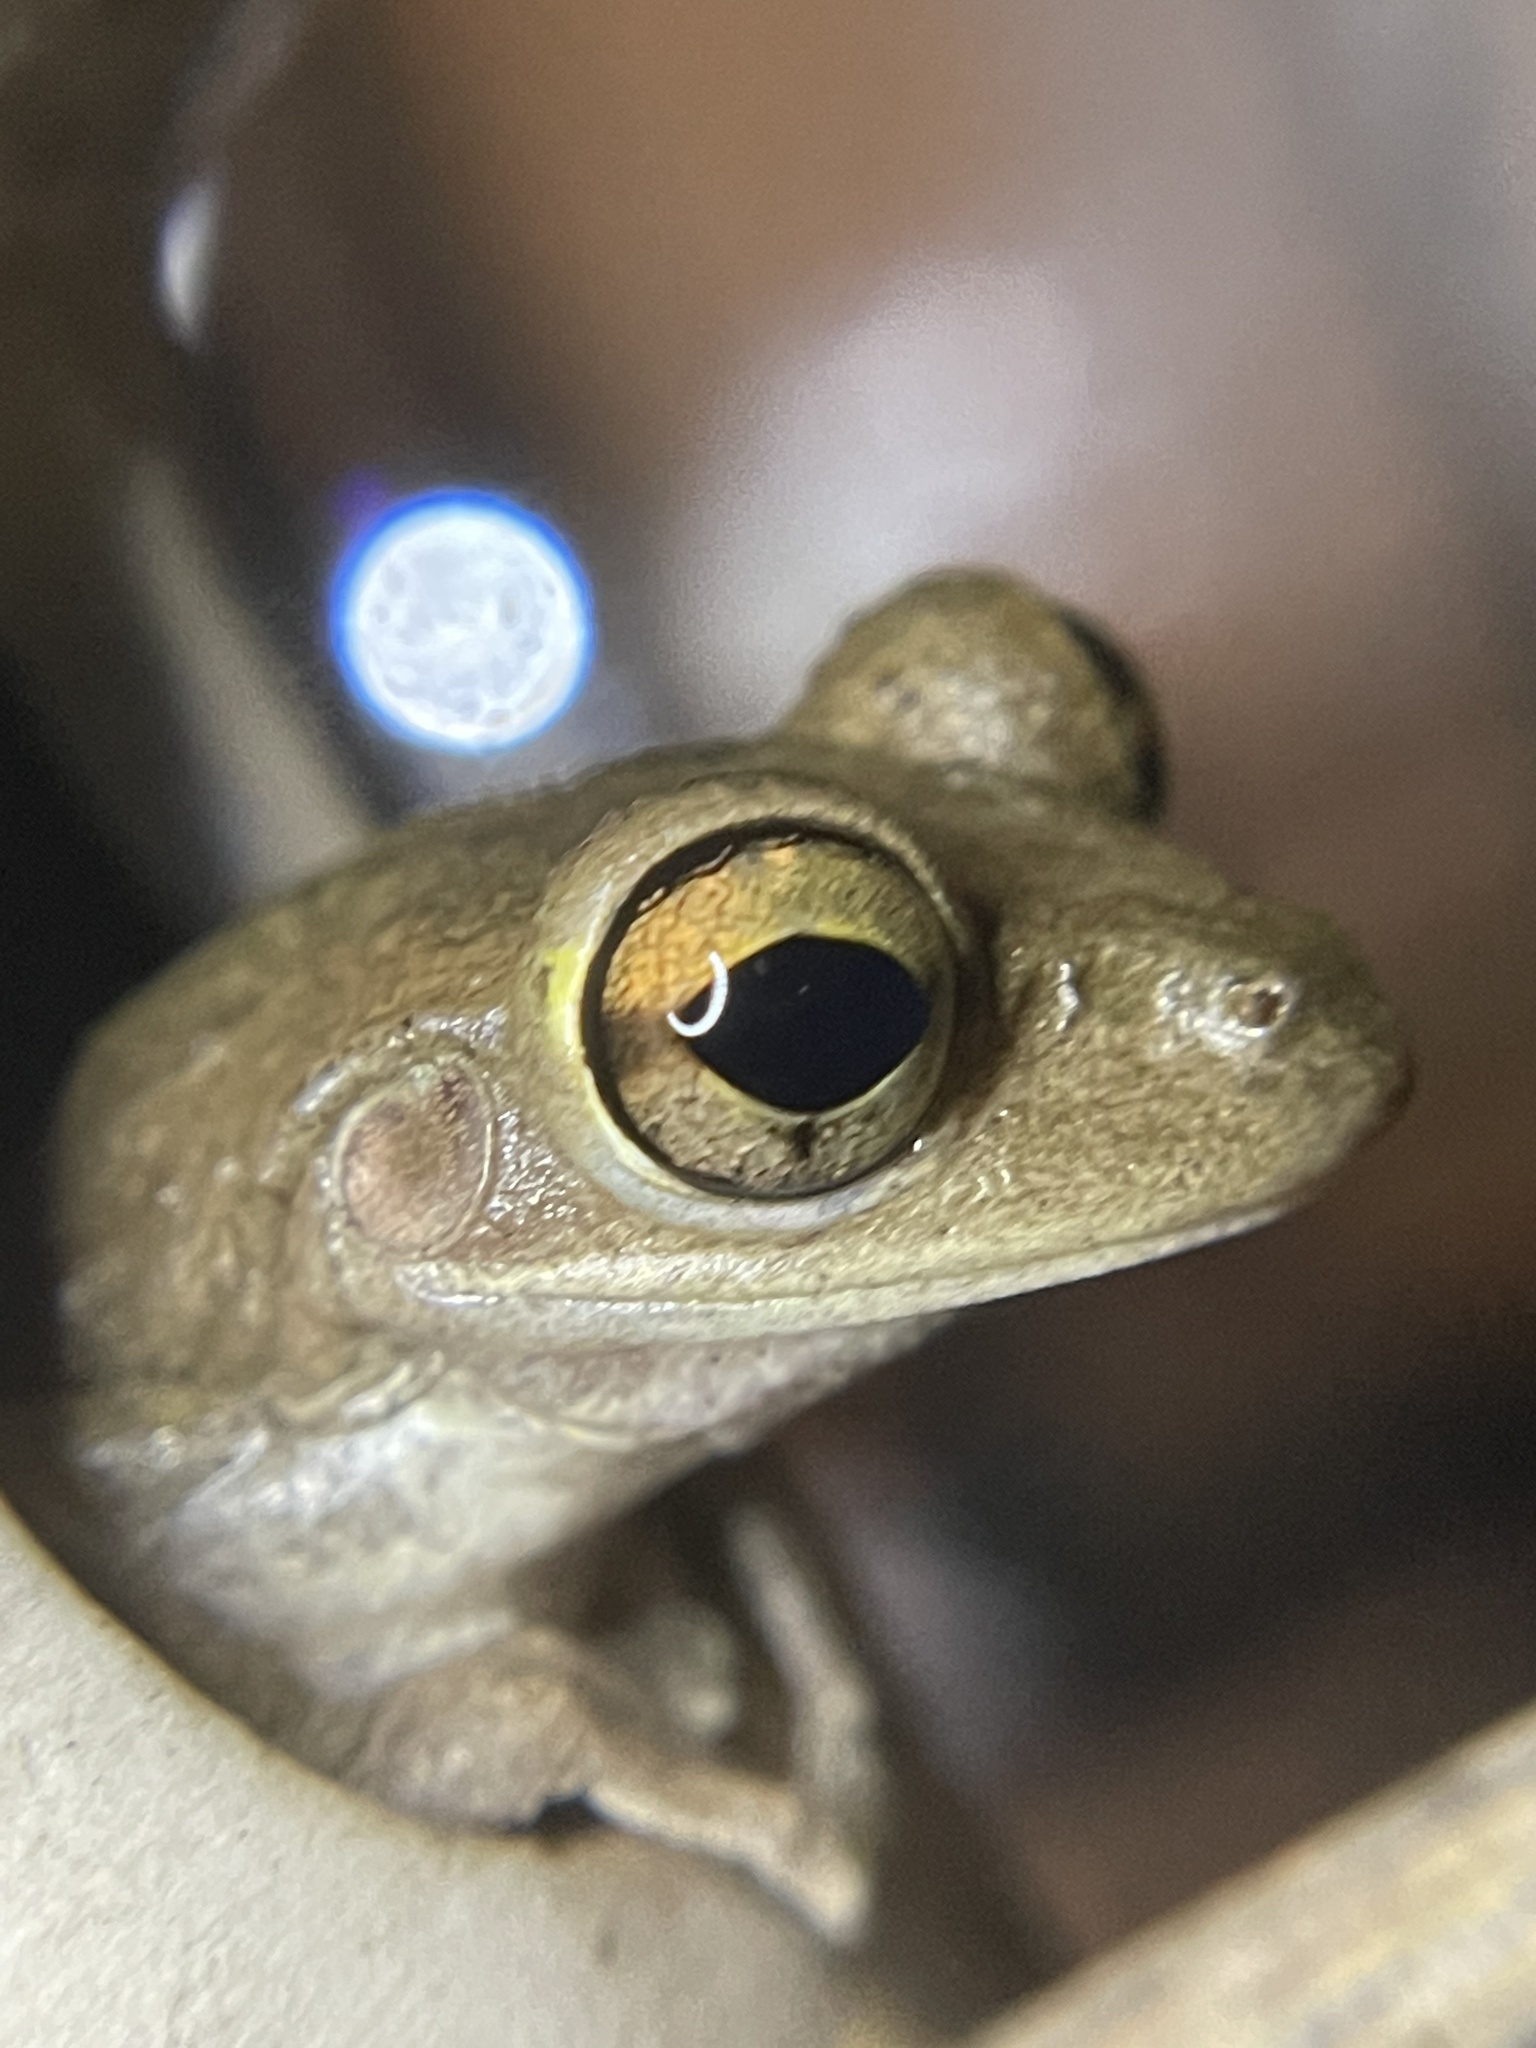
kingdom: Animalia
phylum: Chordata
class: Amphibia
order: Anura
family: Hylidae
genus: Osteopilus
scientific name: Osteopilus septentrionalis
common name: Cuban treefrog
